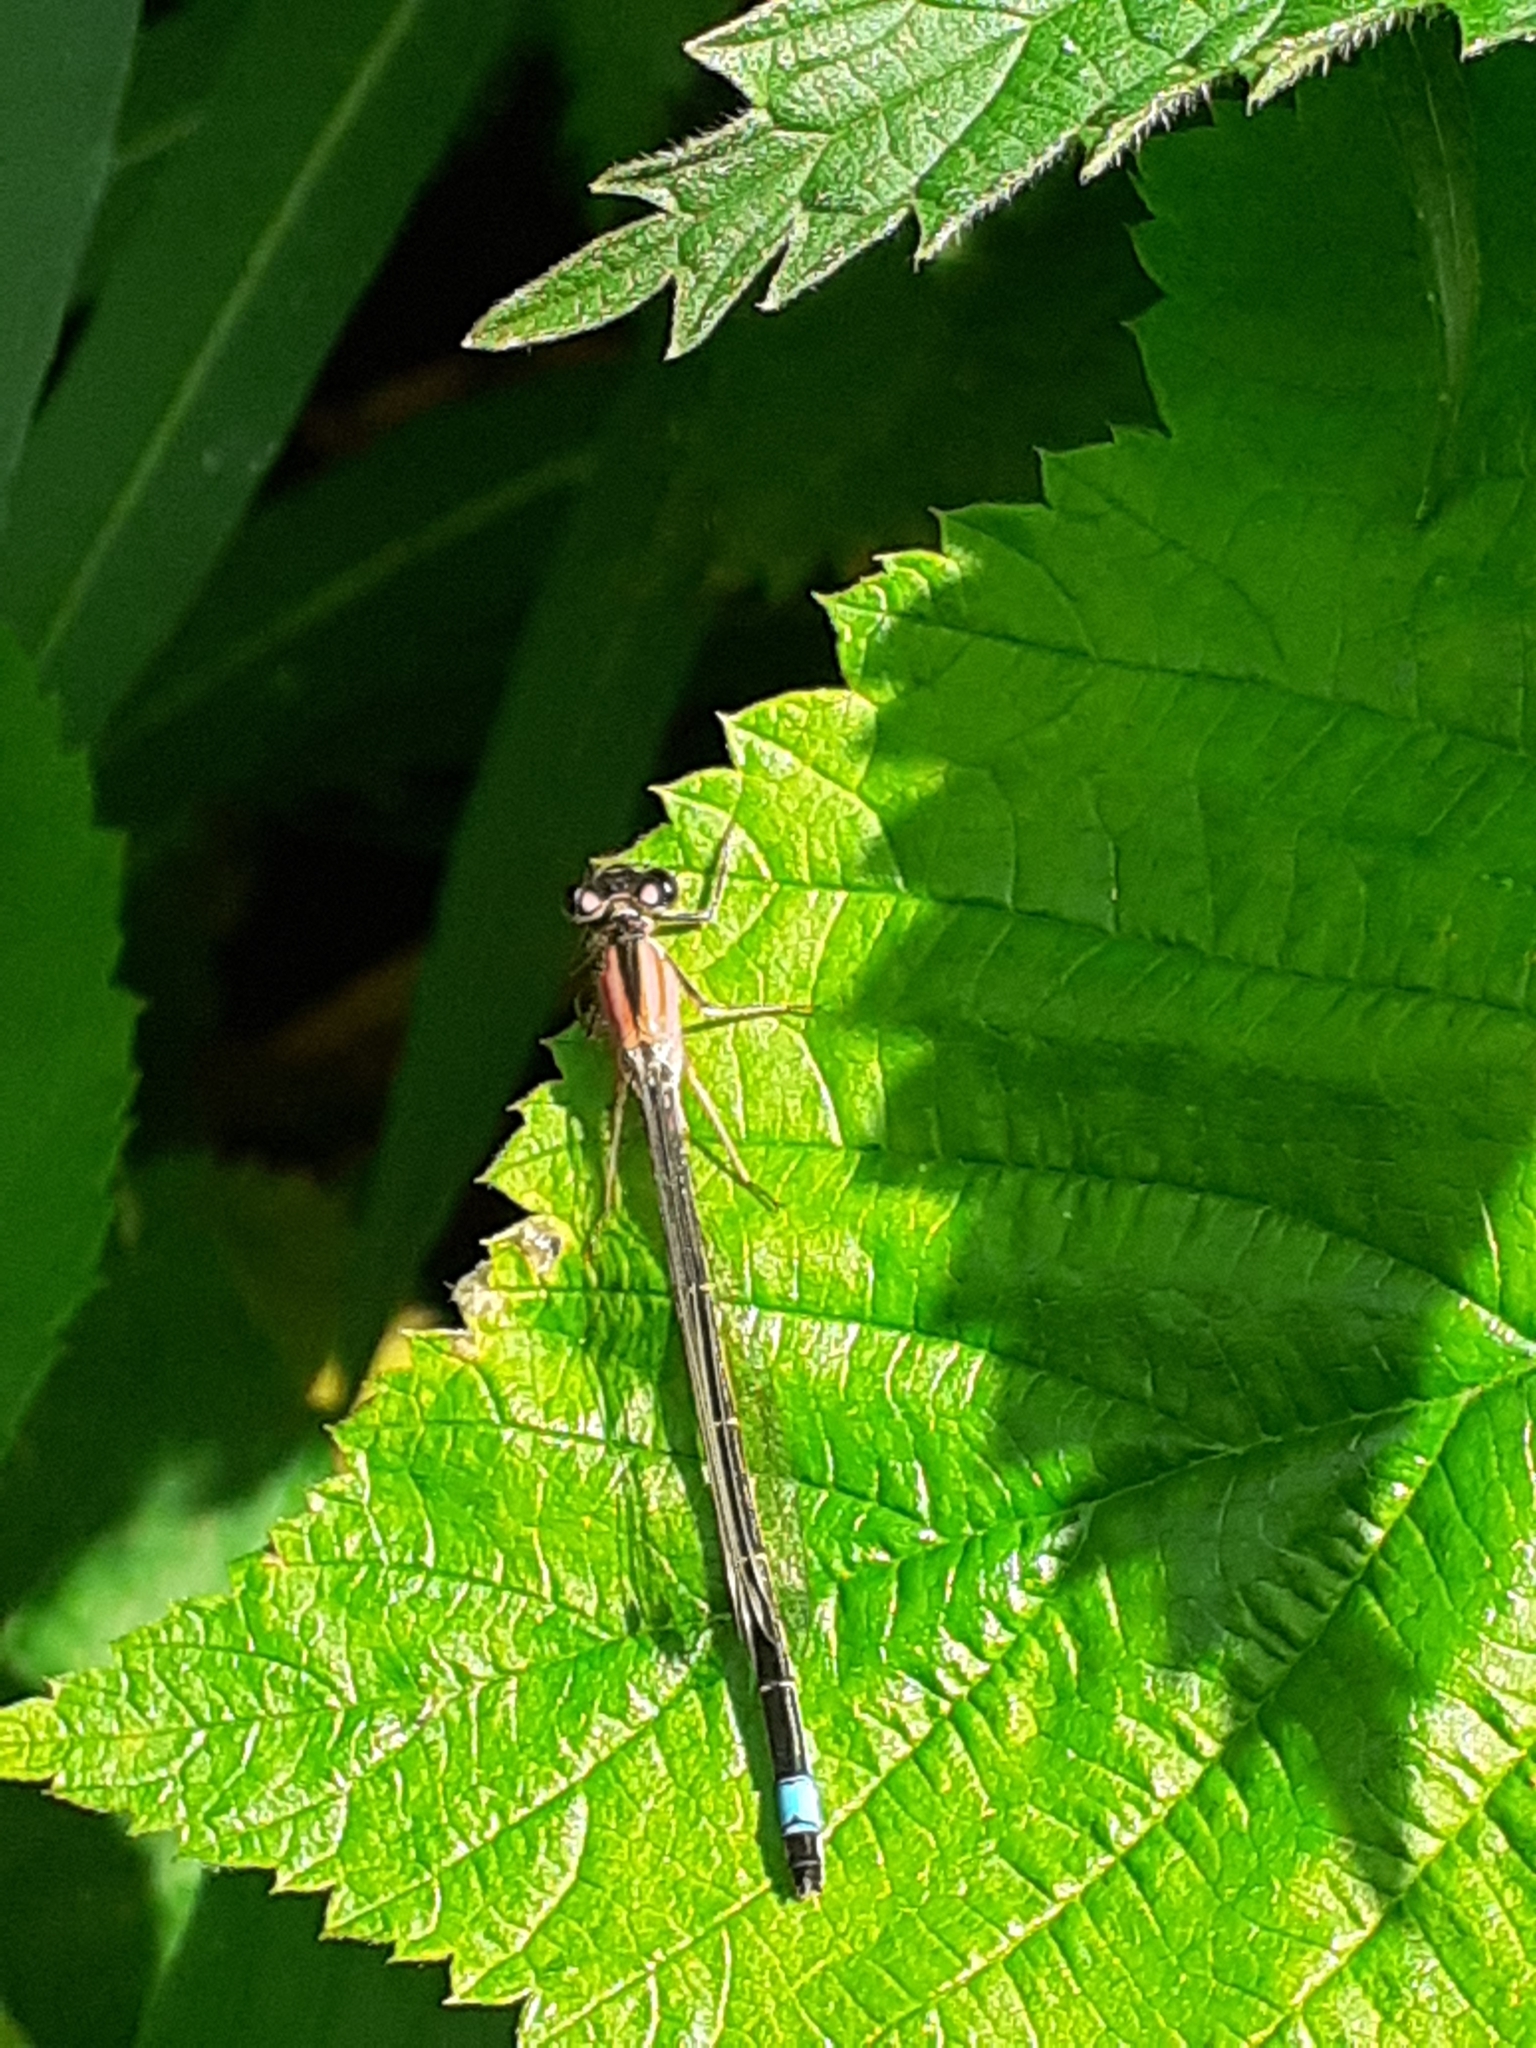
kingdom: Animalia
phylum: Arthropoda
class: Insecta
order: Odonata
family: Coenagrionidae
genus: Ischnura
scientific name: Ischnura elegans
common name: Blue-tailed damselfly
